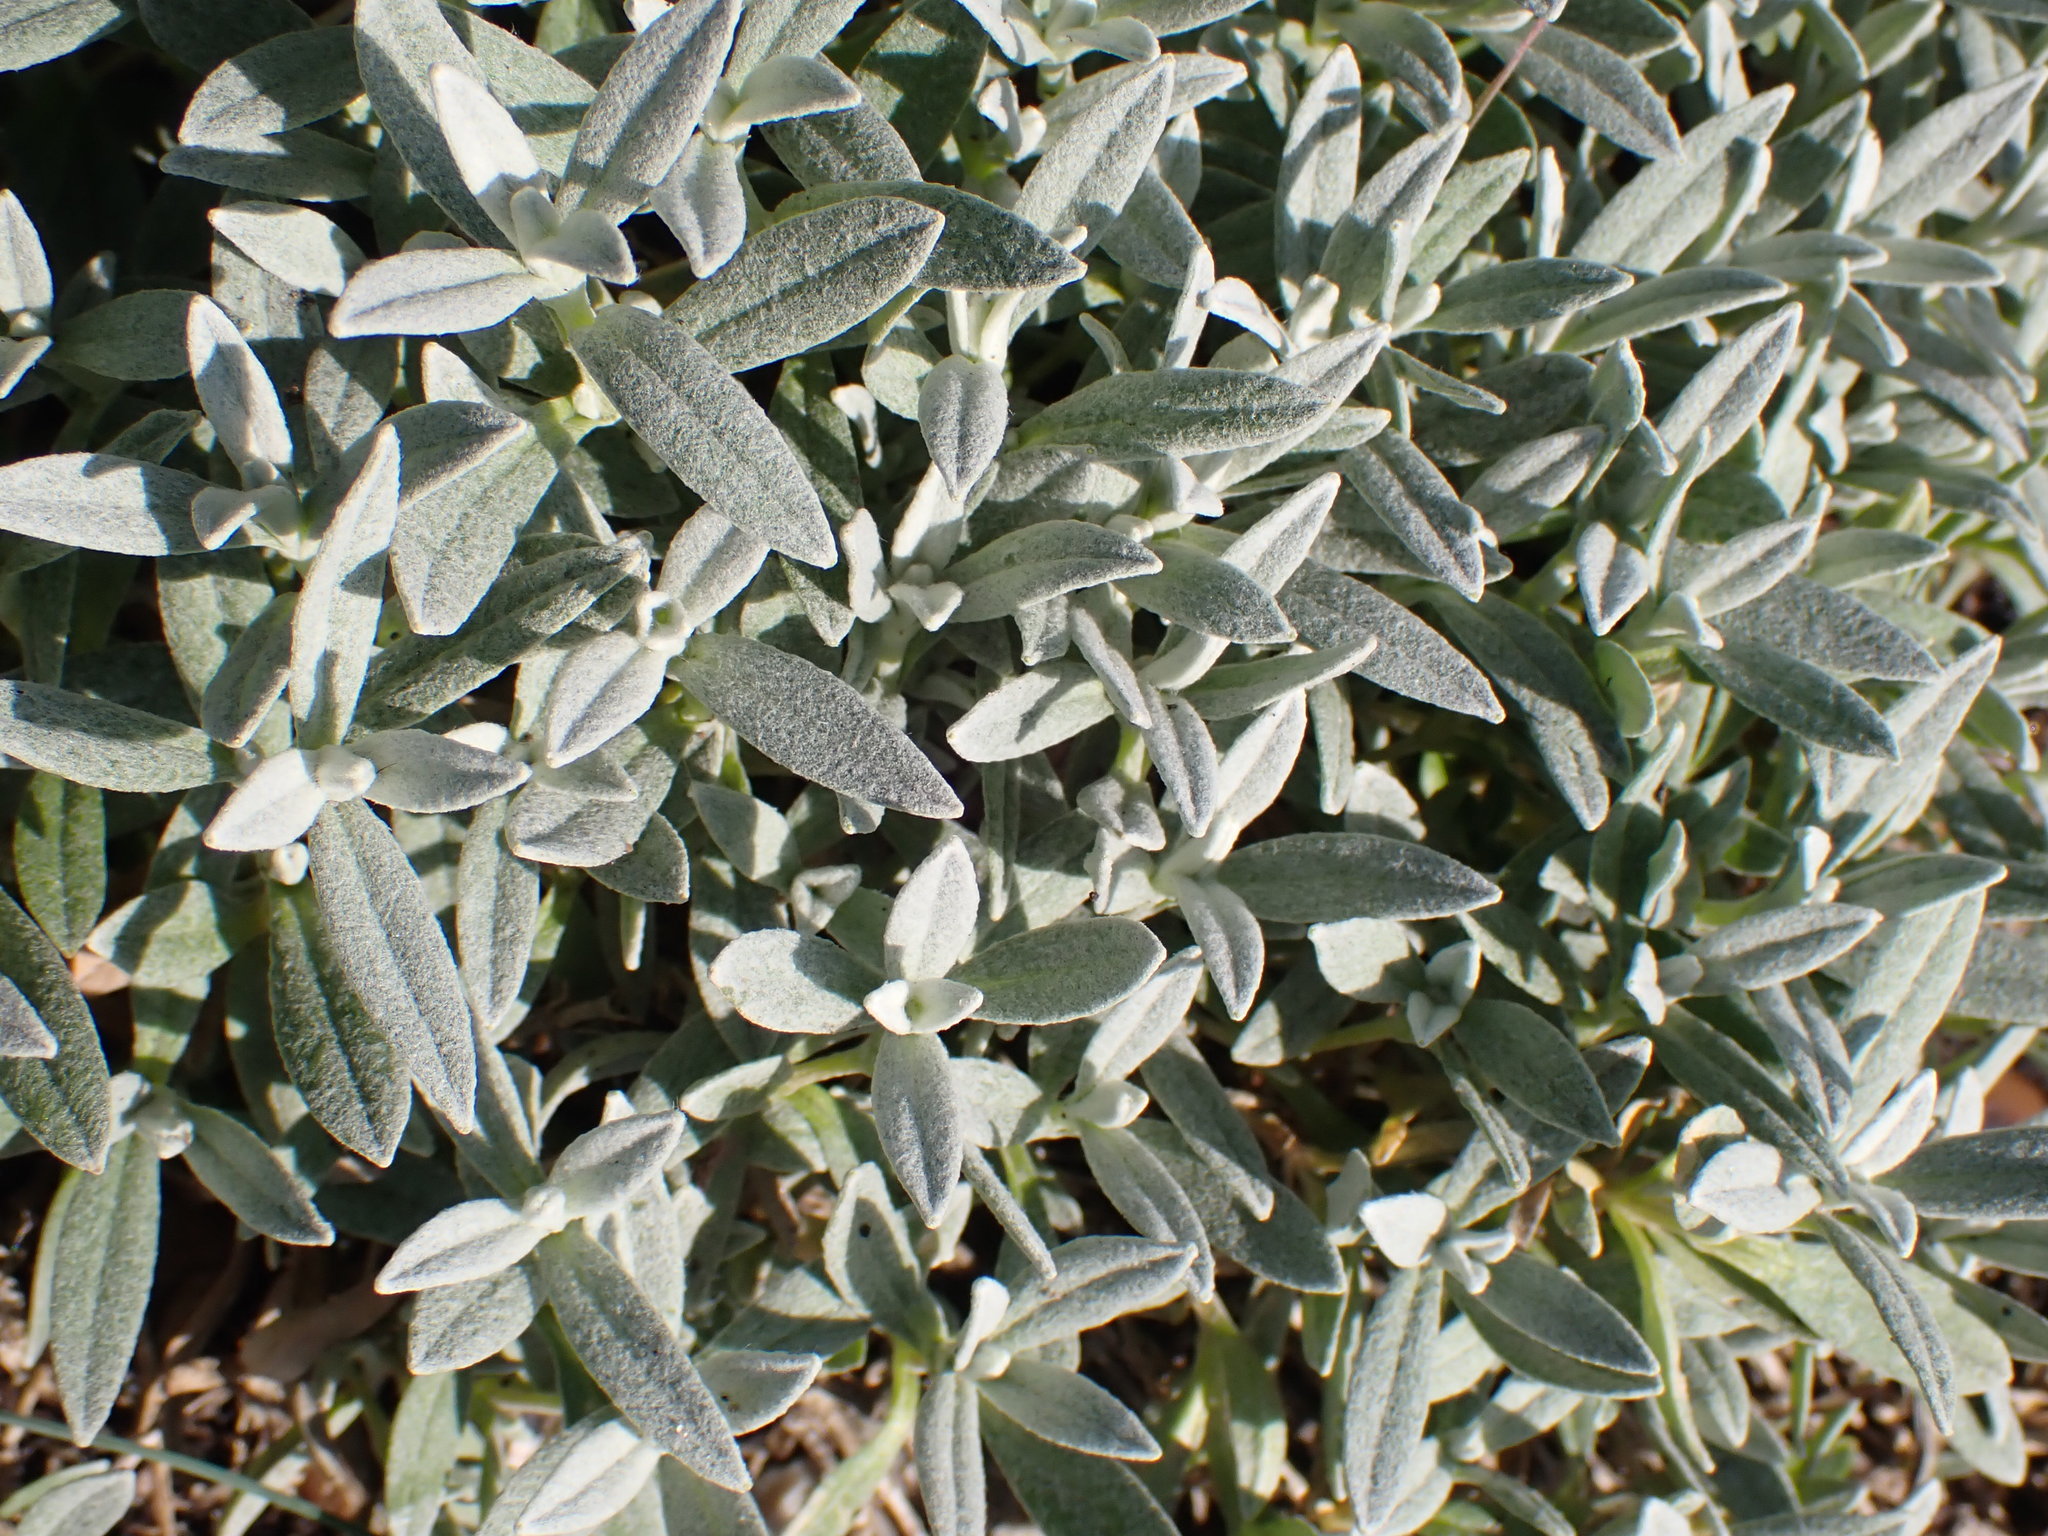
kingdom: Plantae
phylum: Tracheophyta
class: Magnoliopsida
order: Caryophyllales
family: Caryophyllaceae
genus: Cerastium
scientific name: Cerastium tomentosum
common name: Snow-in-summer
